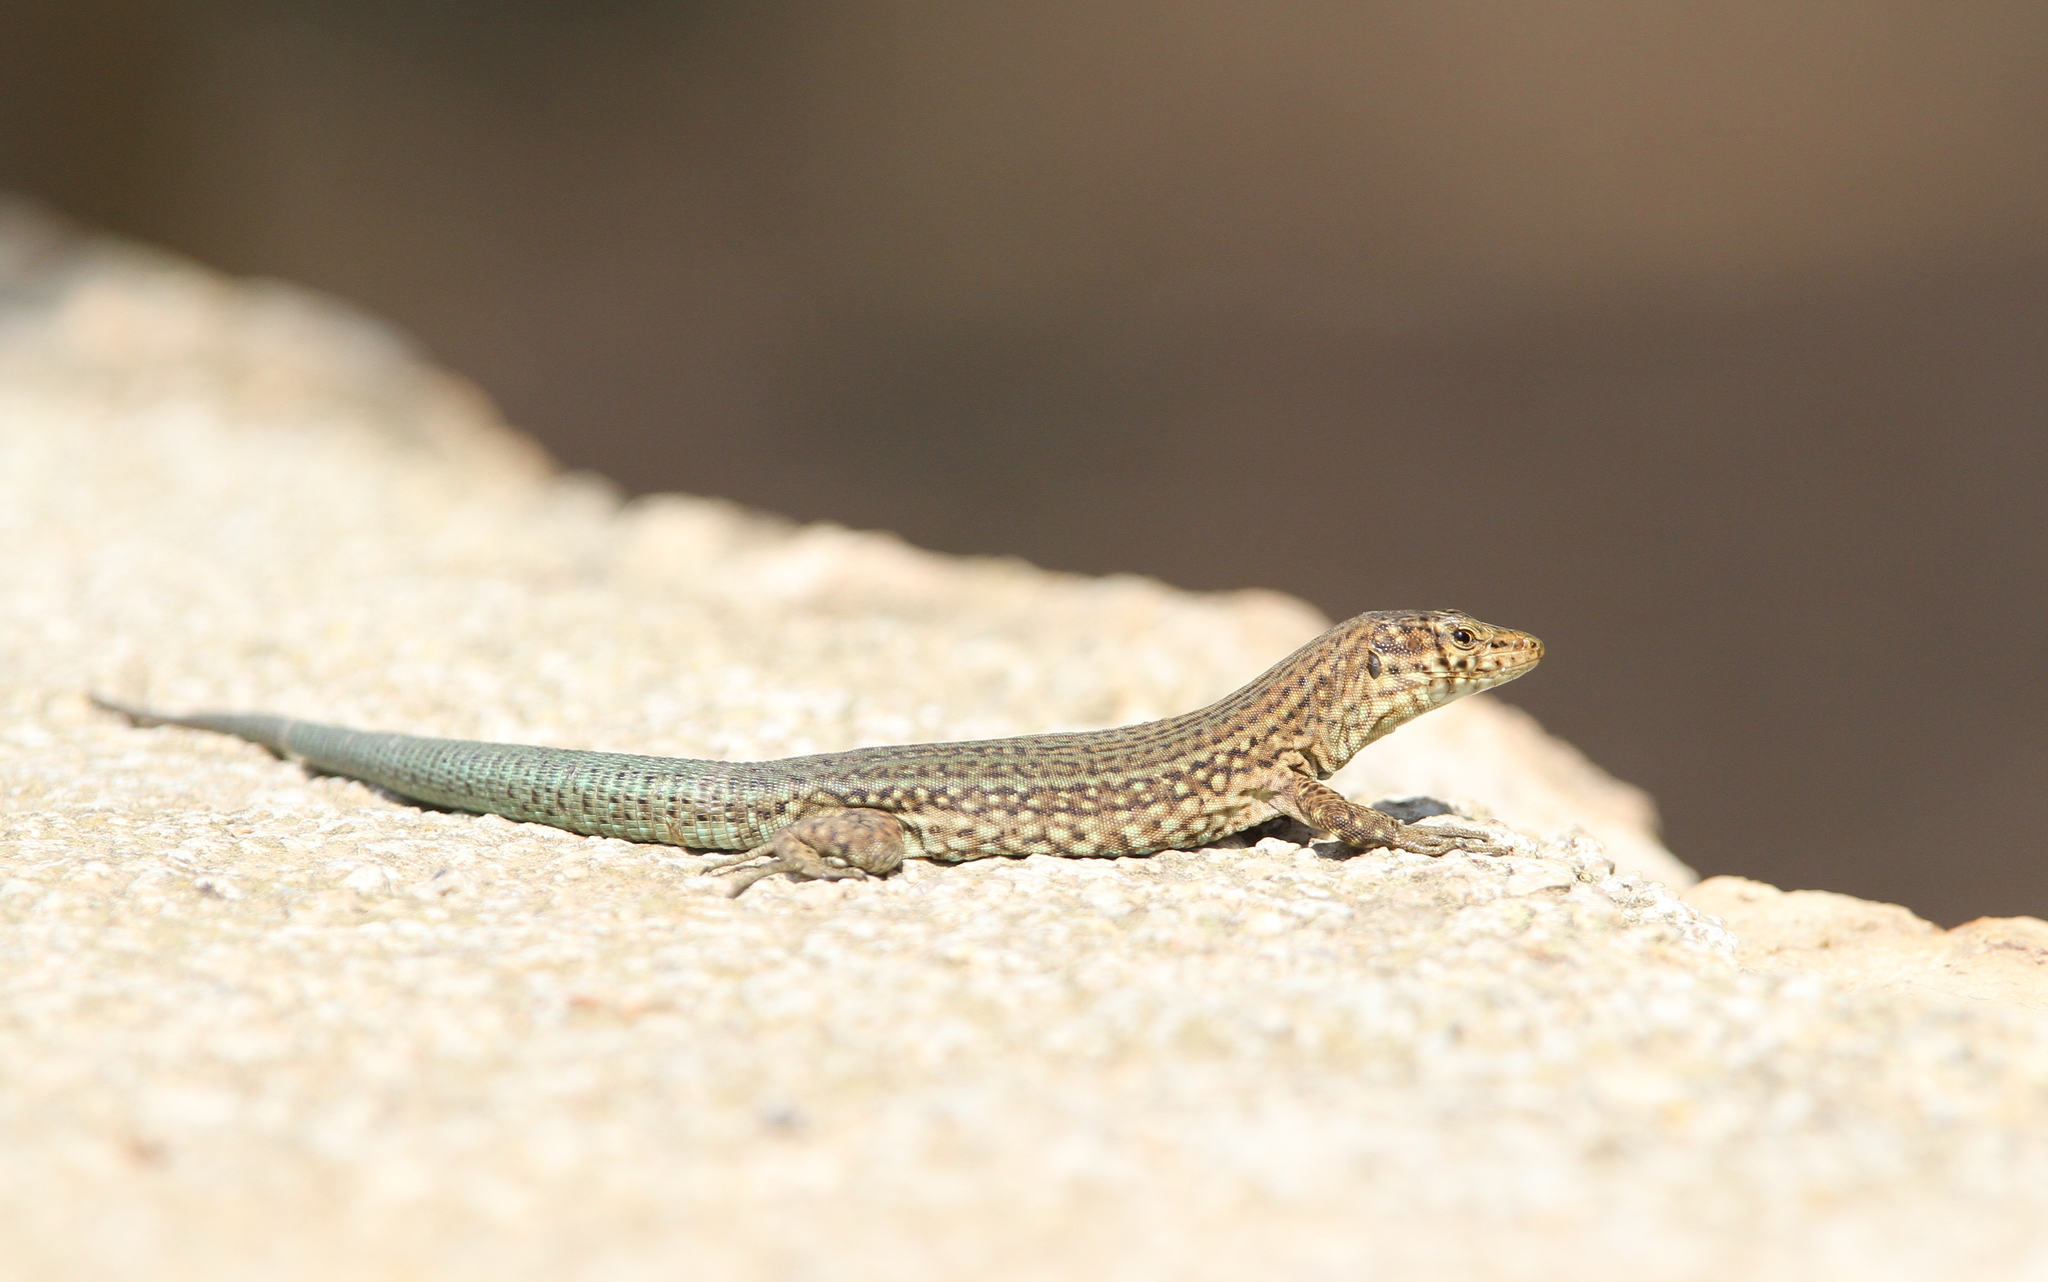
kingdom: Animalia
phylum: Chordata
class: Squamata
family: Lacertidae
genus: Podarcis
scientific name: Podarcis lilfordi
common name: Belearic lizard
